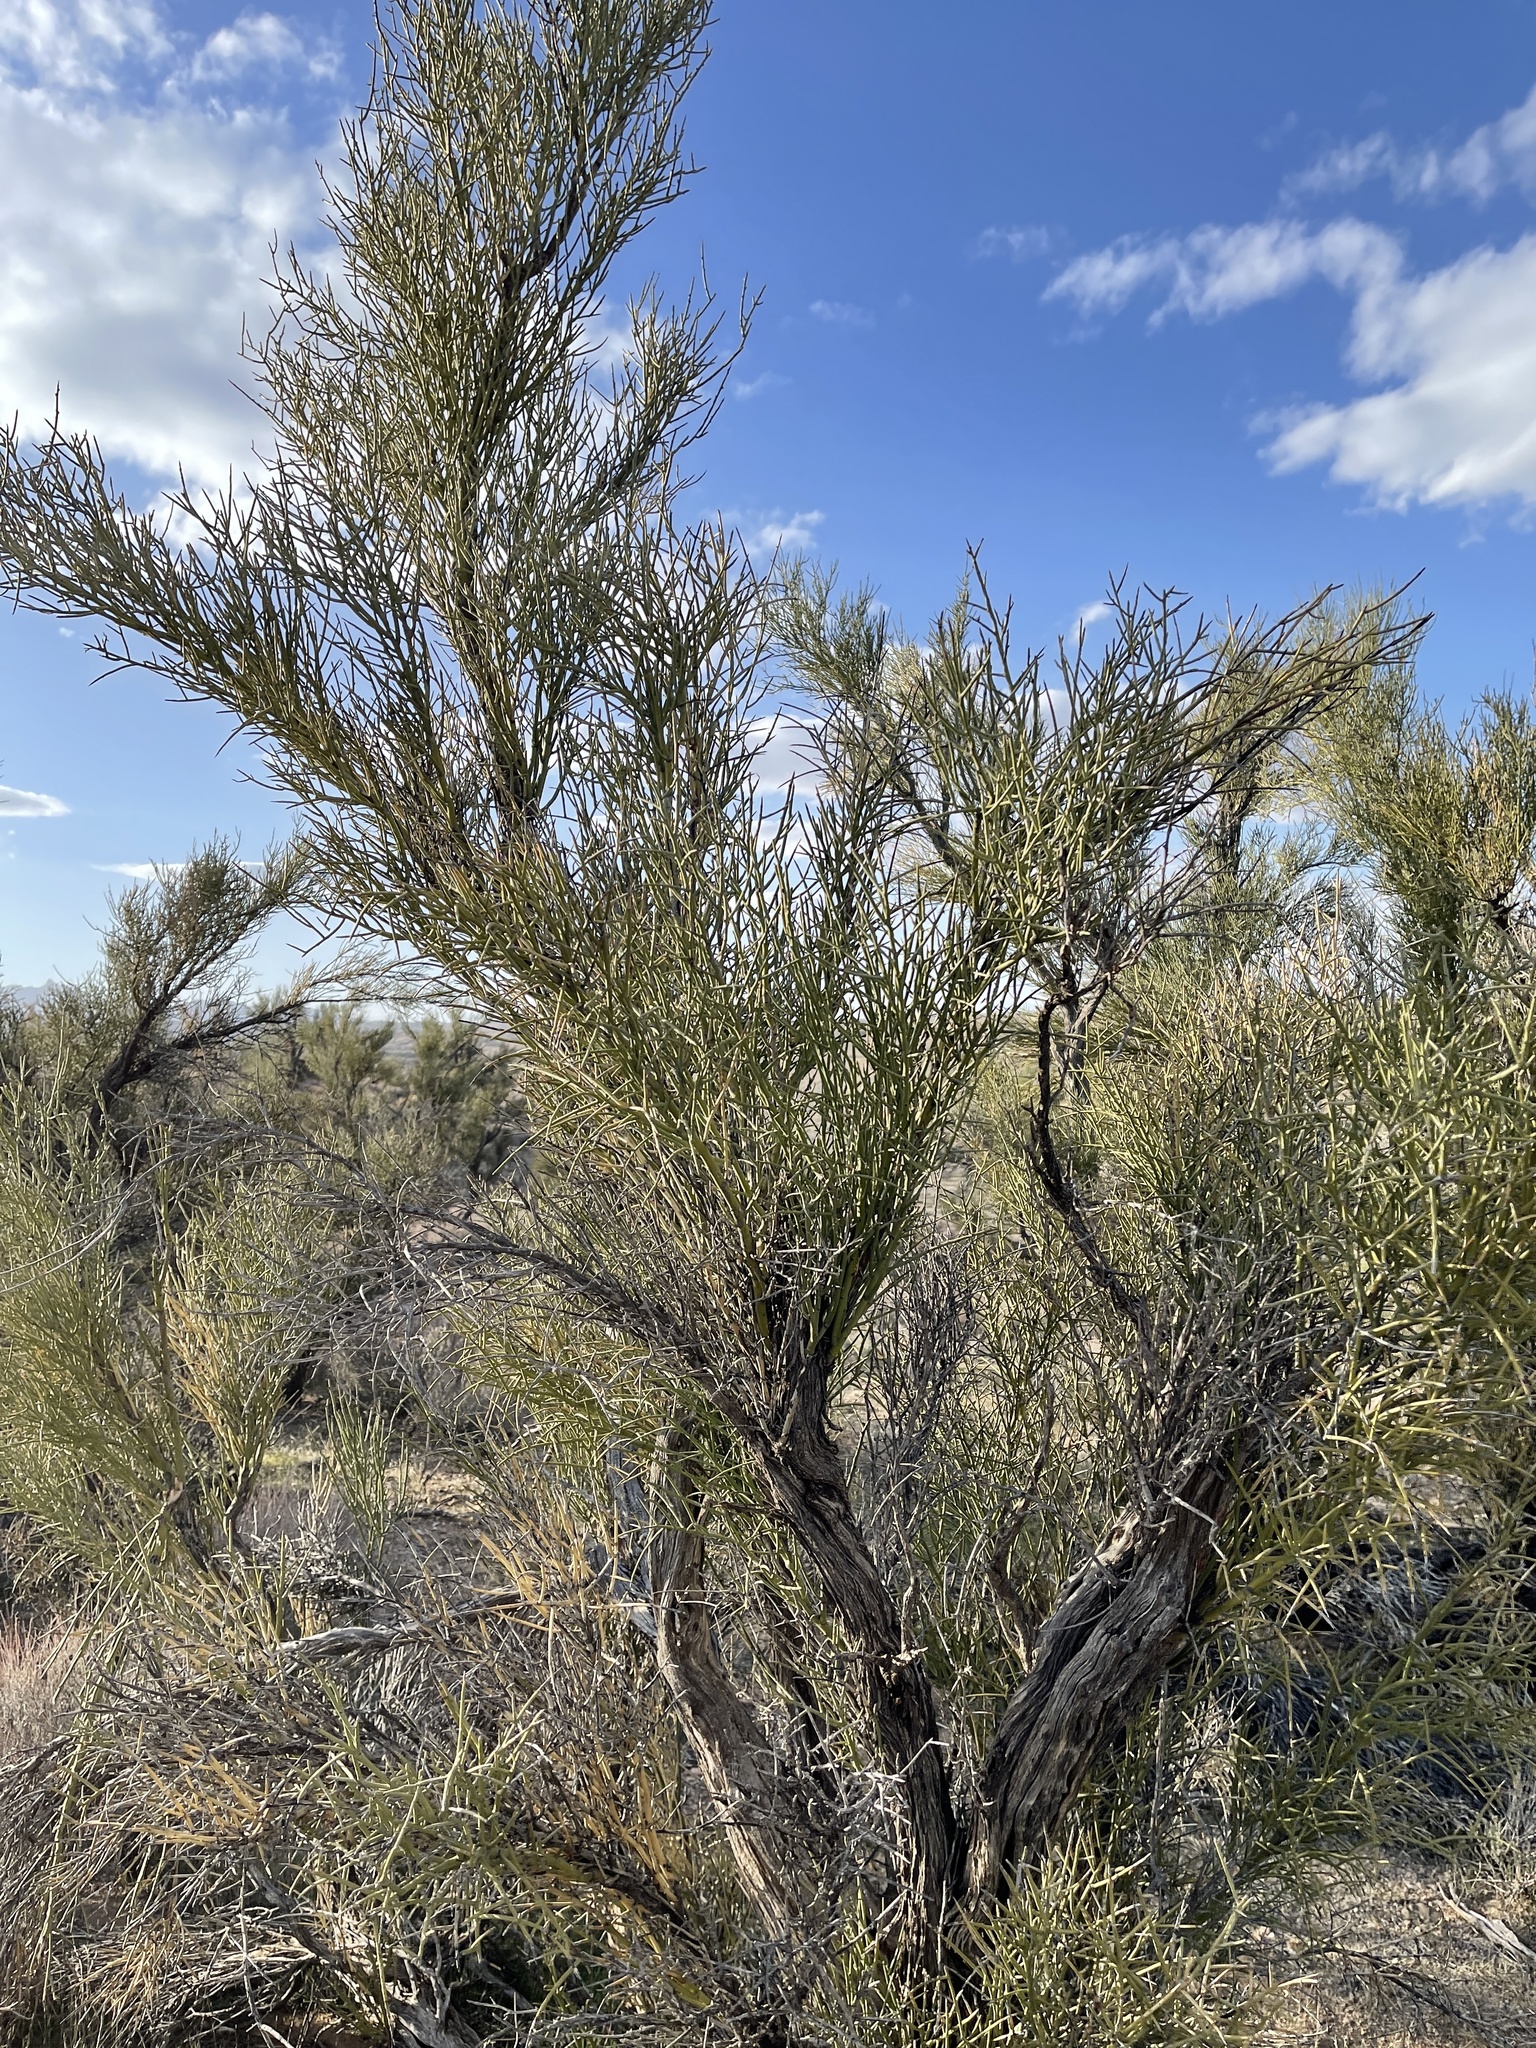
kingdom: Plantae
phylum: Tracheophyta
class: Magnoliopsida
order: Celastrales
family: Celastraceae
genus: Canotia
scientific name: Canotia holacantha
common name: Crucifixion thorns
